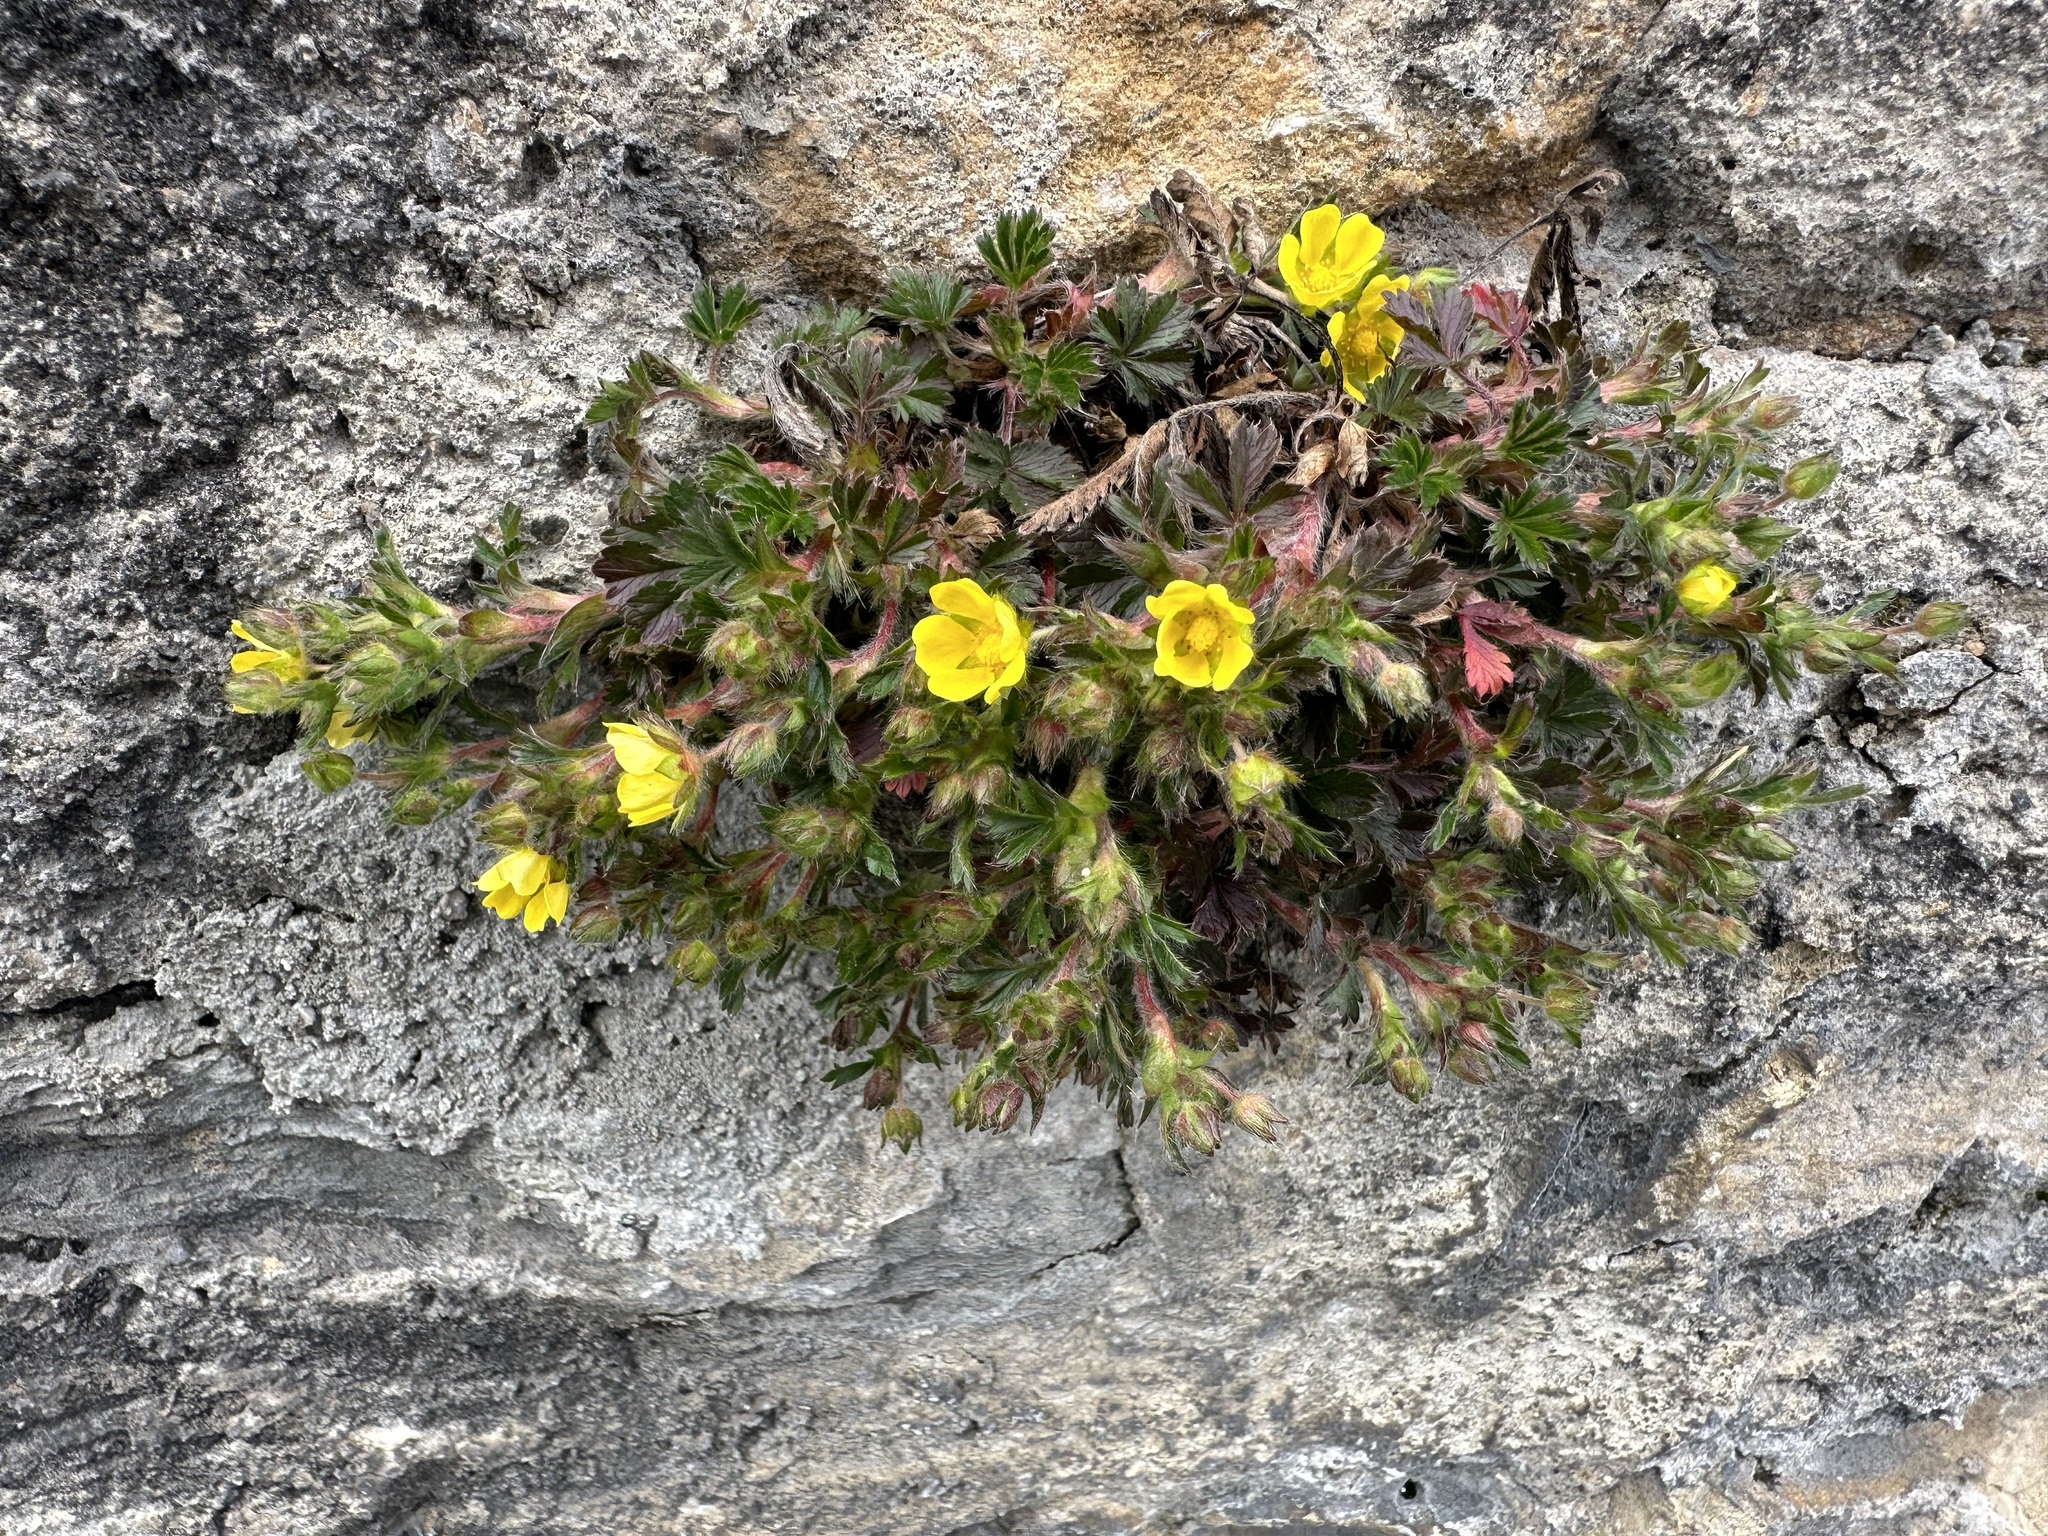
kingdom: Plantae
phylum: Tracheophyta
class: Magnoliopsida
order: Rosales
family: Rosaceae
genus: Potentilla
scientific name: Potentilla verna
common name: Spring cinquefoil
